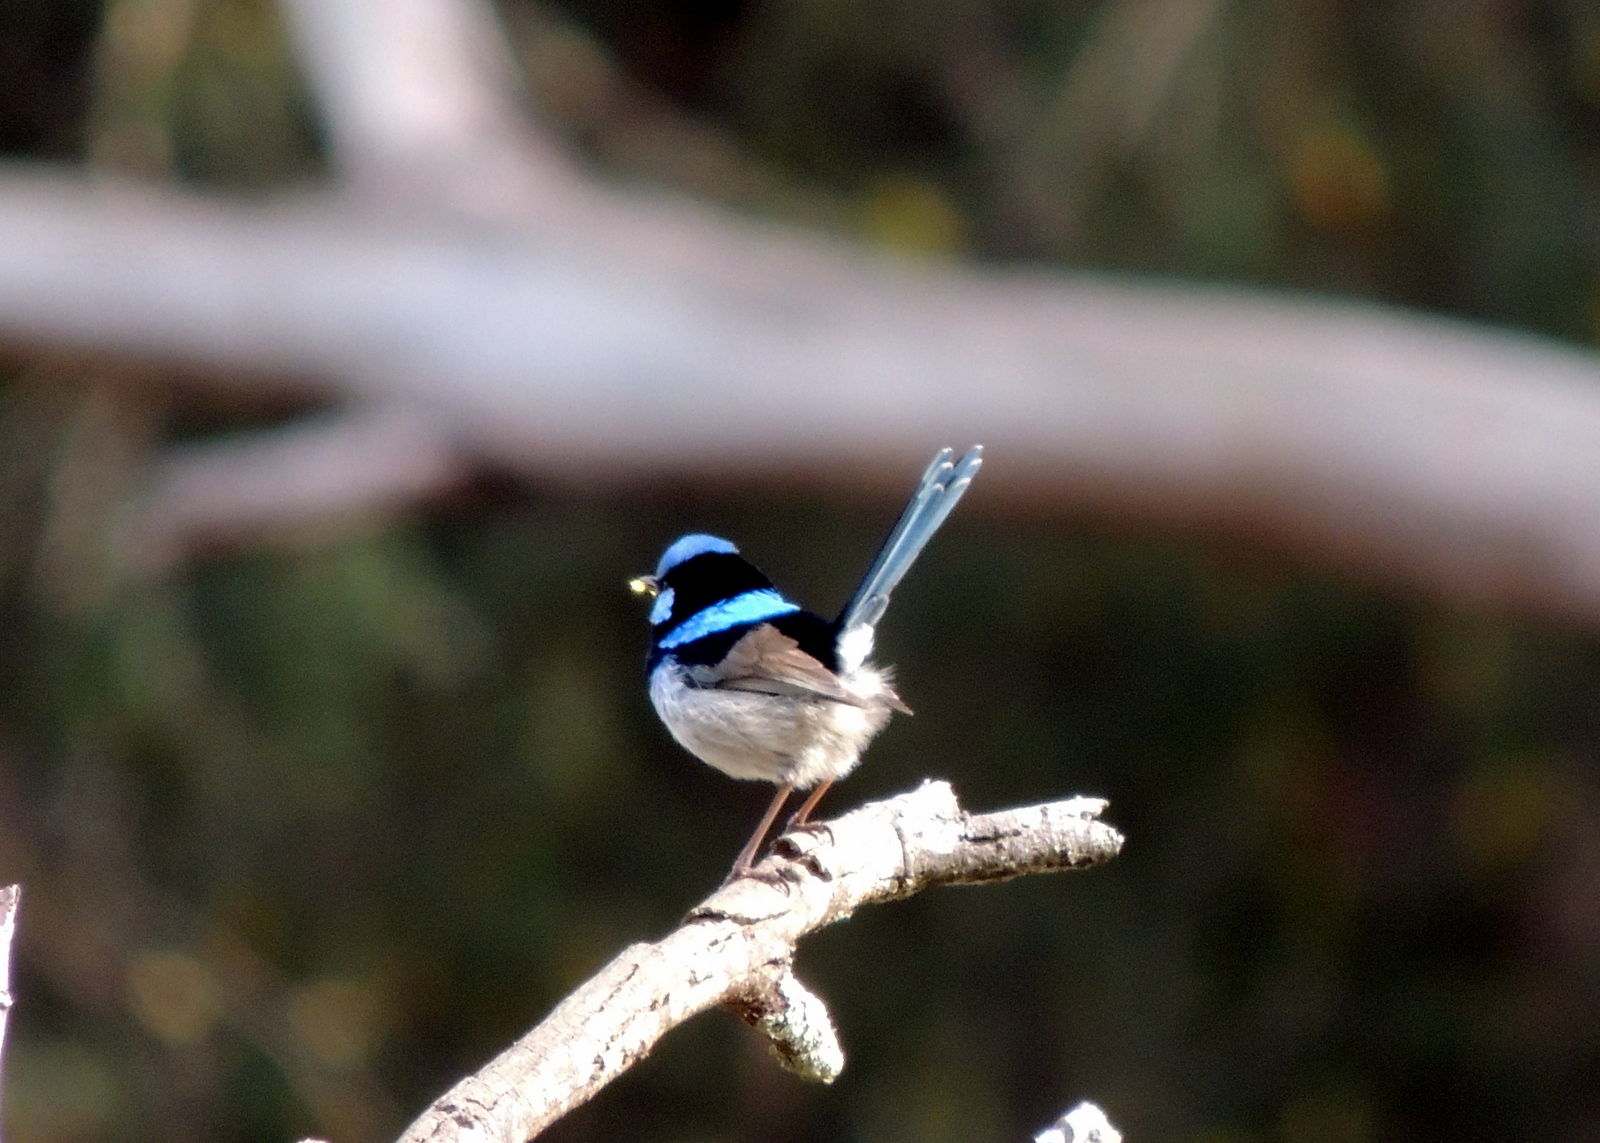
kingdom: Animalia
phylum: Chordata
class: Aves
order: Passeriformes
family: Maluridae
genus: Malurus
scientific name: Malurus cyaneus
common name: Superb fairywren
